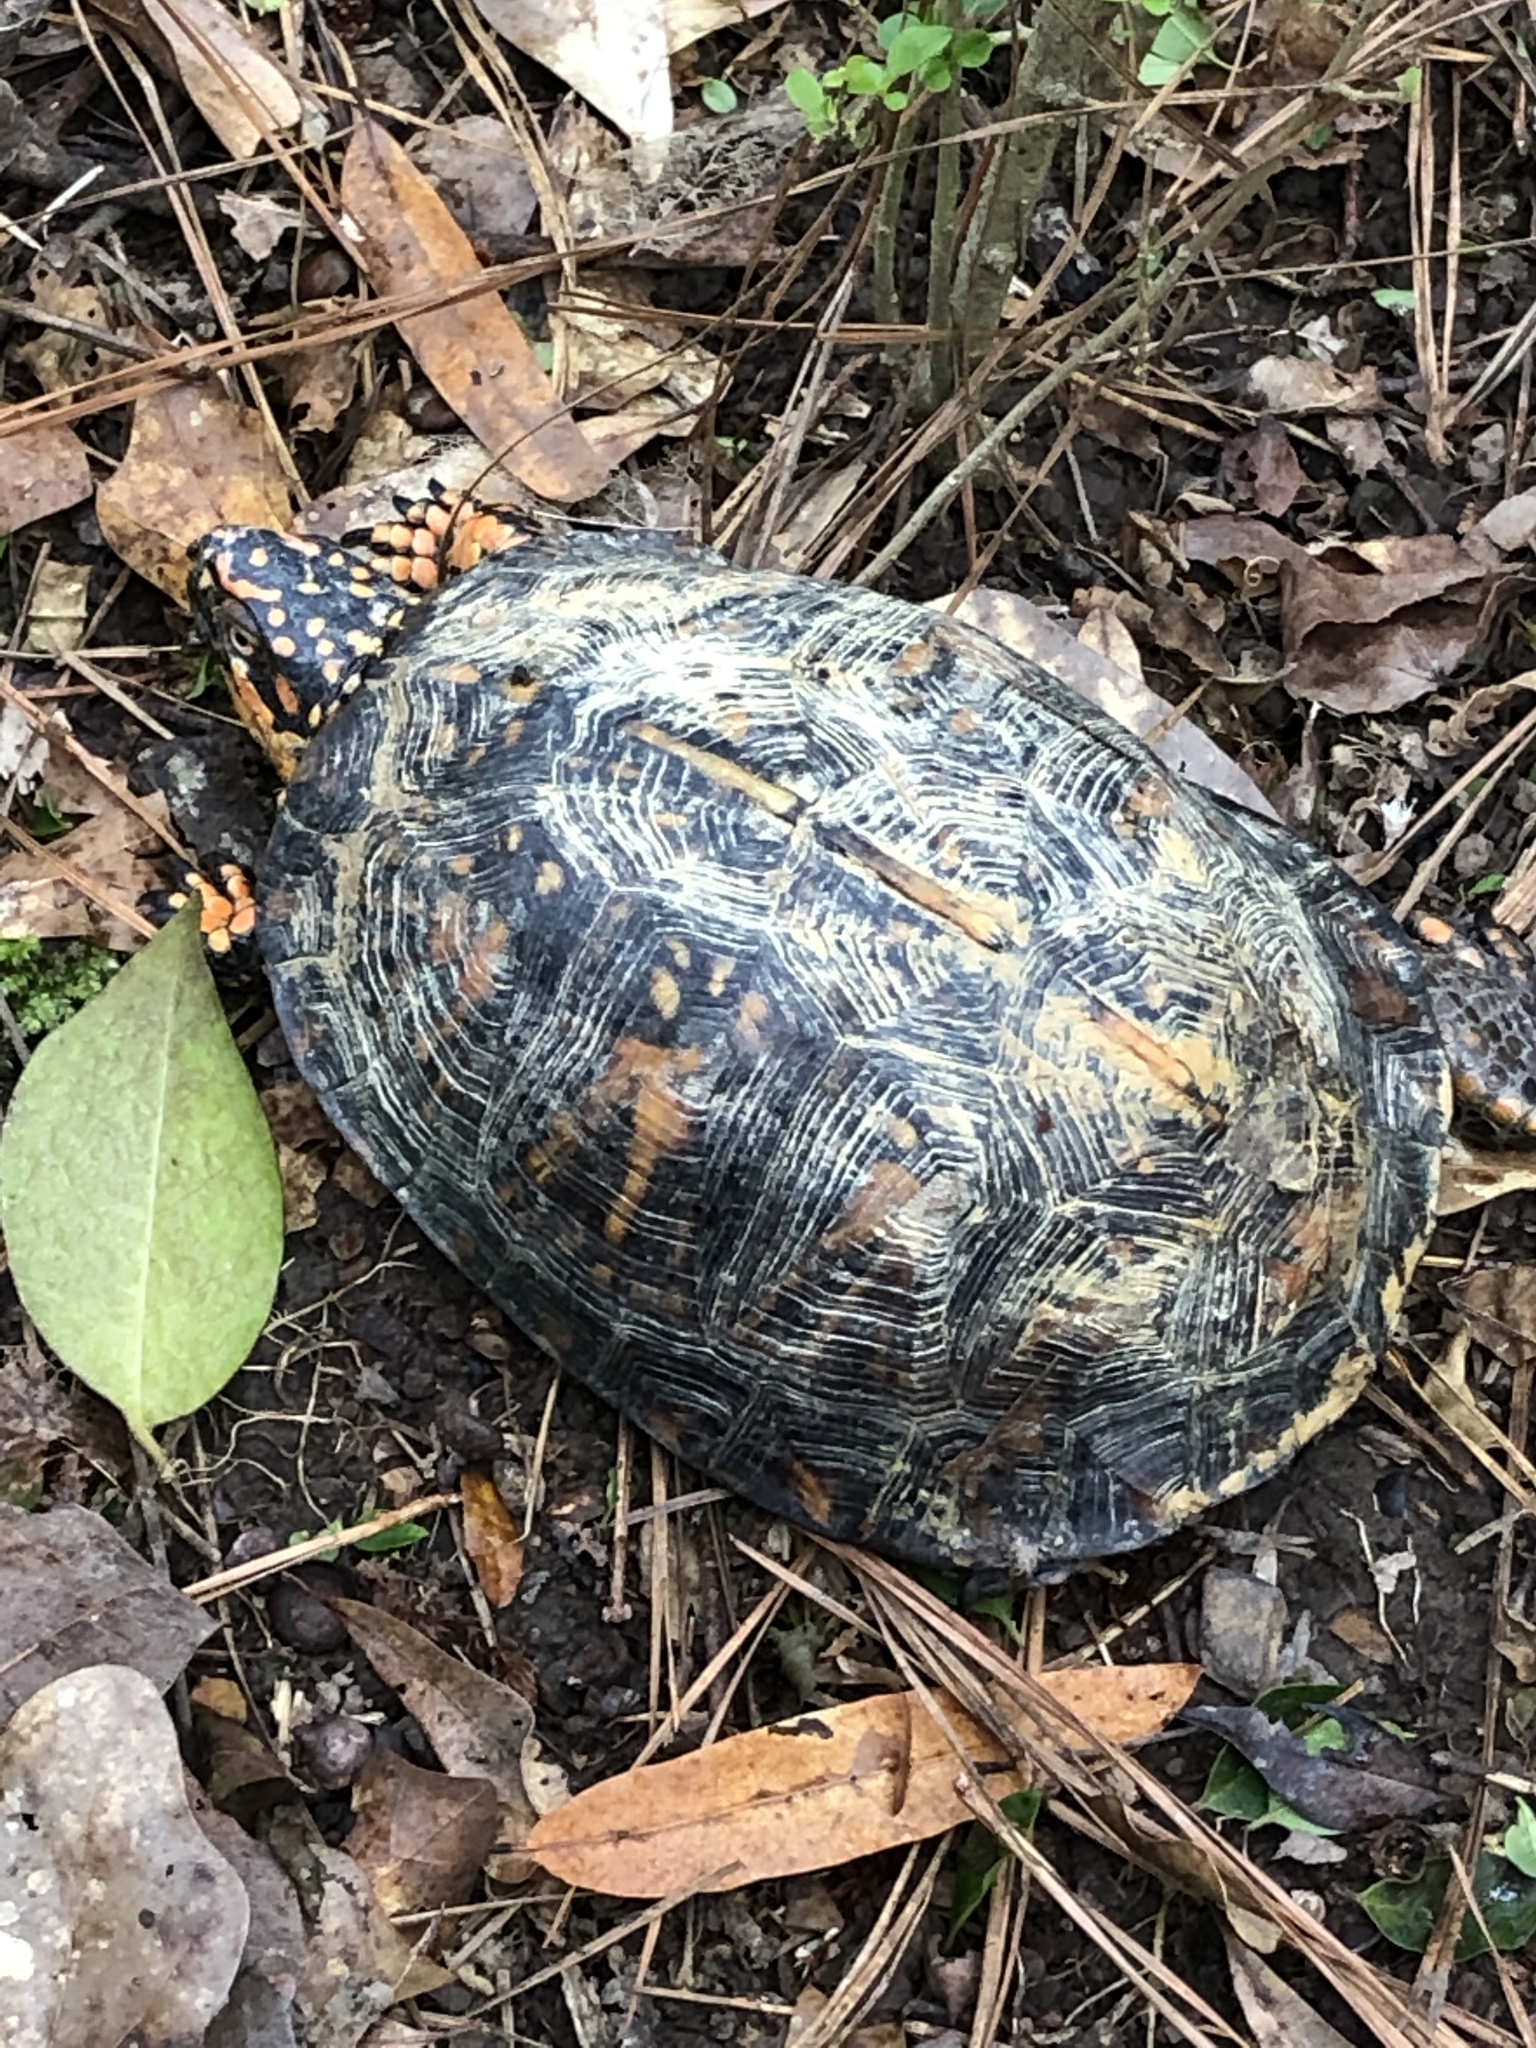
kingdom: Animalia
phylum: Chordata
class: Testudines
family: Emydidae
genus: Terrapene
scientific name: Terrapene carolina
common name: Common box turtle
